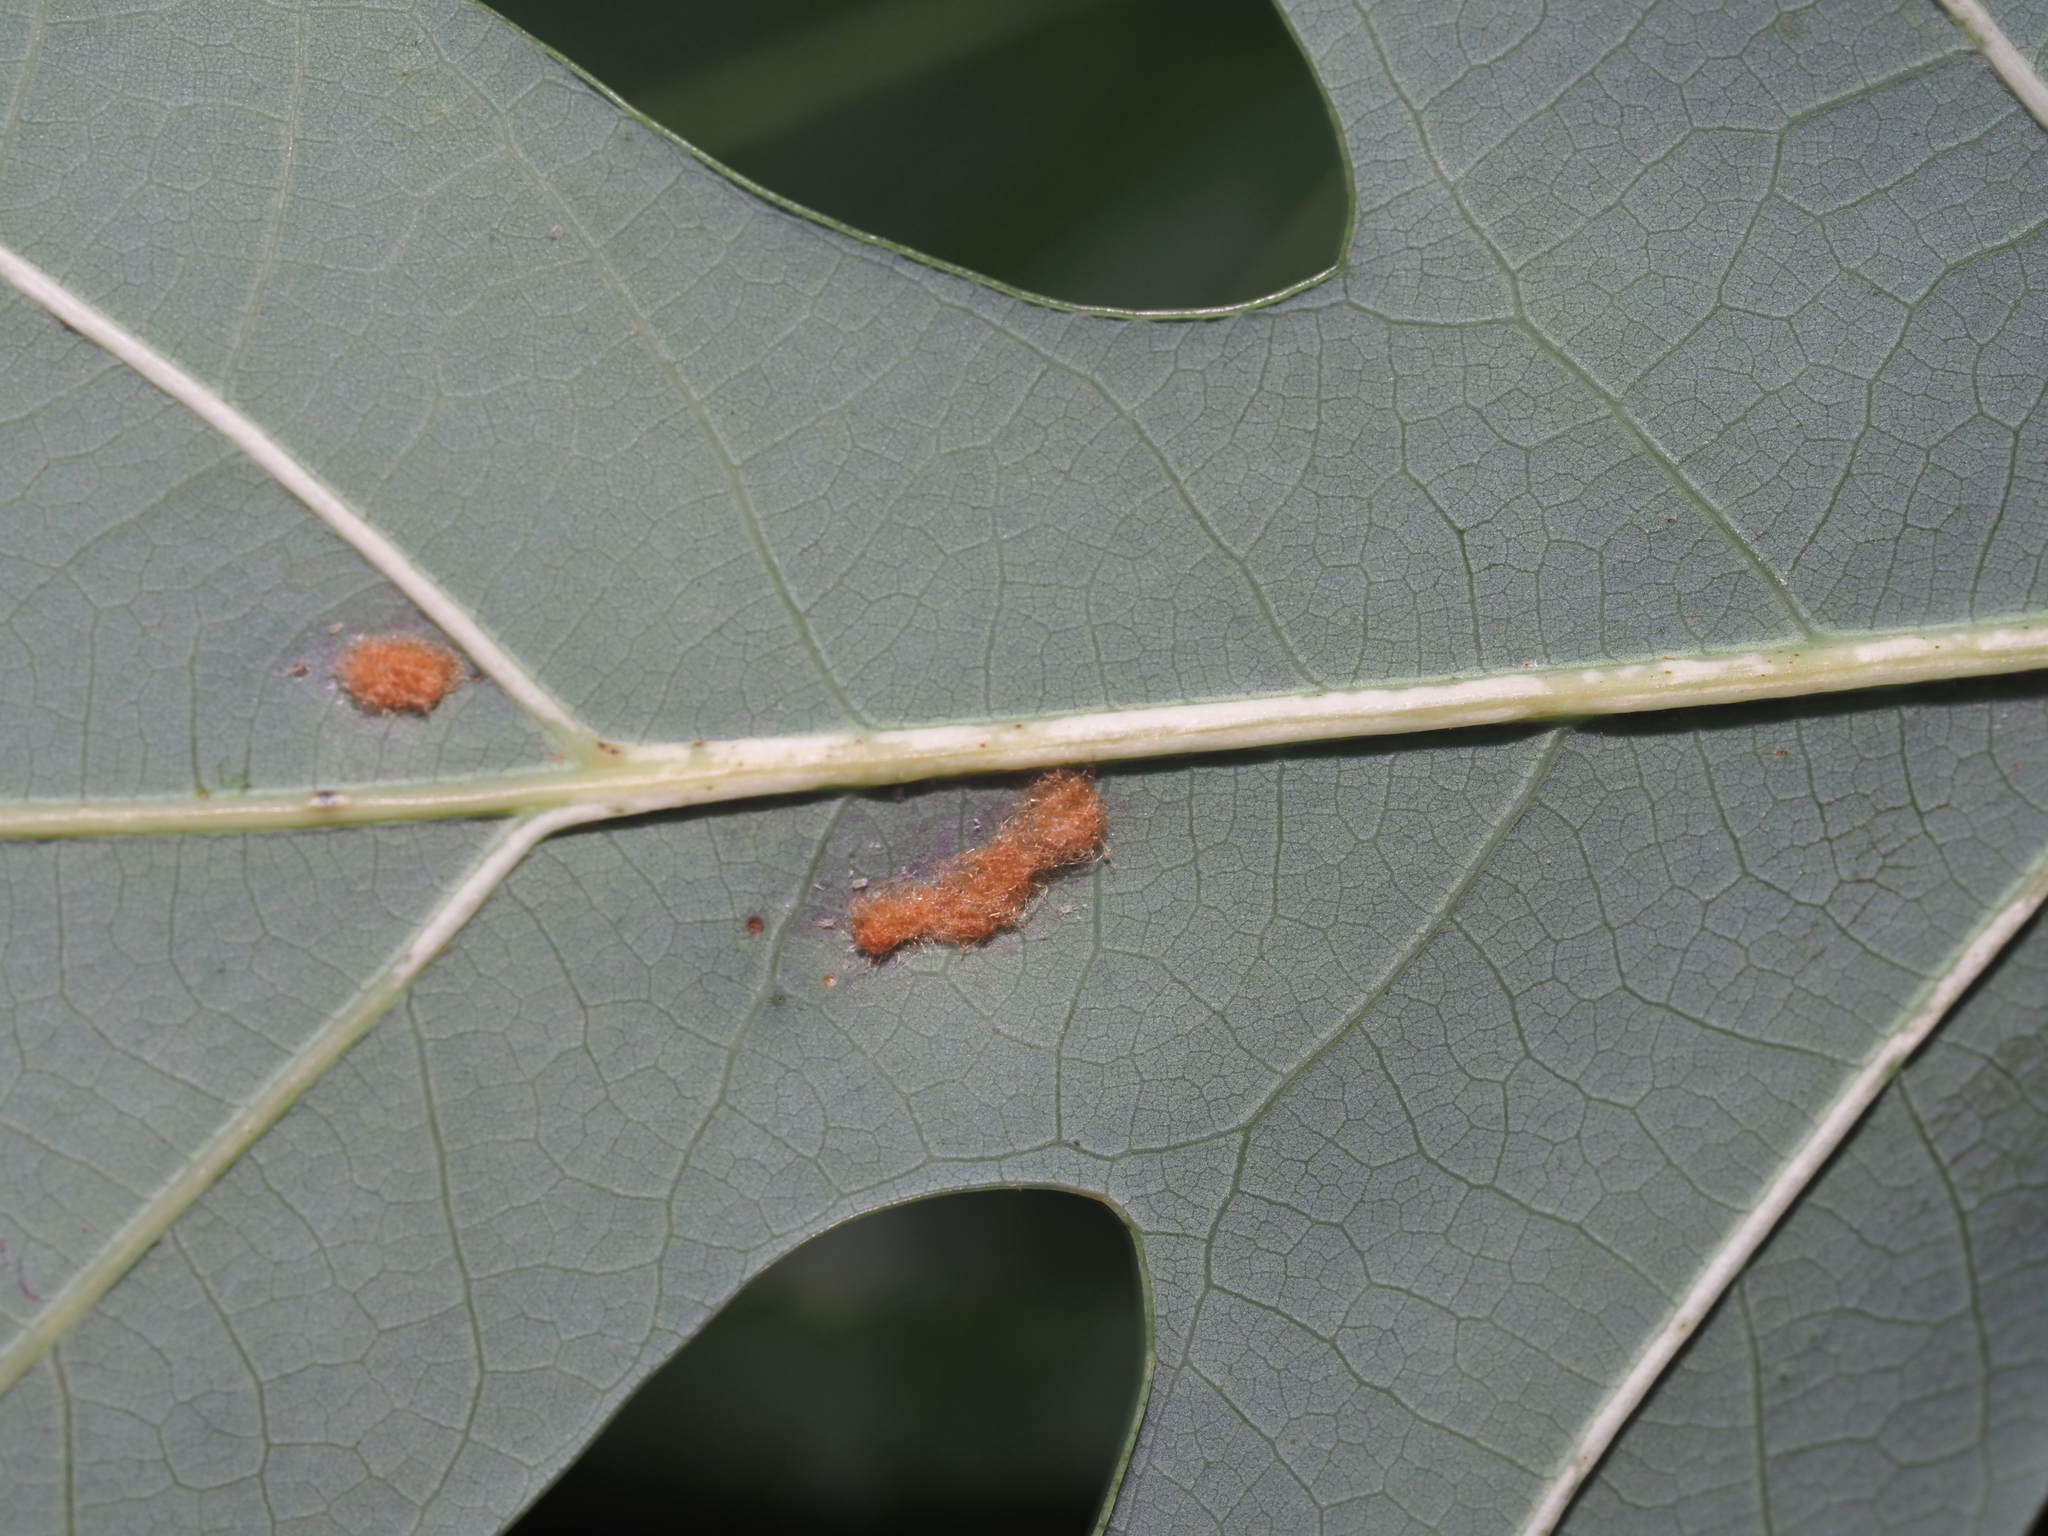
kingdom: Animalia
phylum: Arthropoda
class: Insecta
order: Hymenoptera
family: Cynipidae
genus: Neuroterus
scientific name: Neuroterus quercusverrucarum
